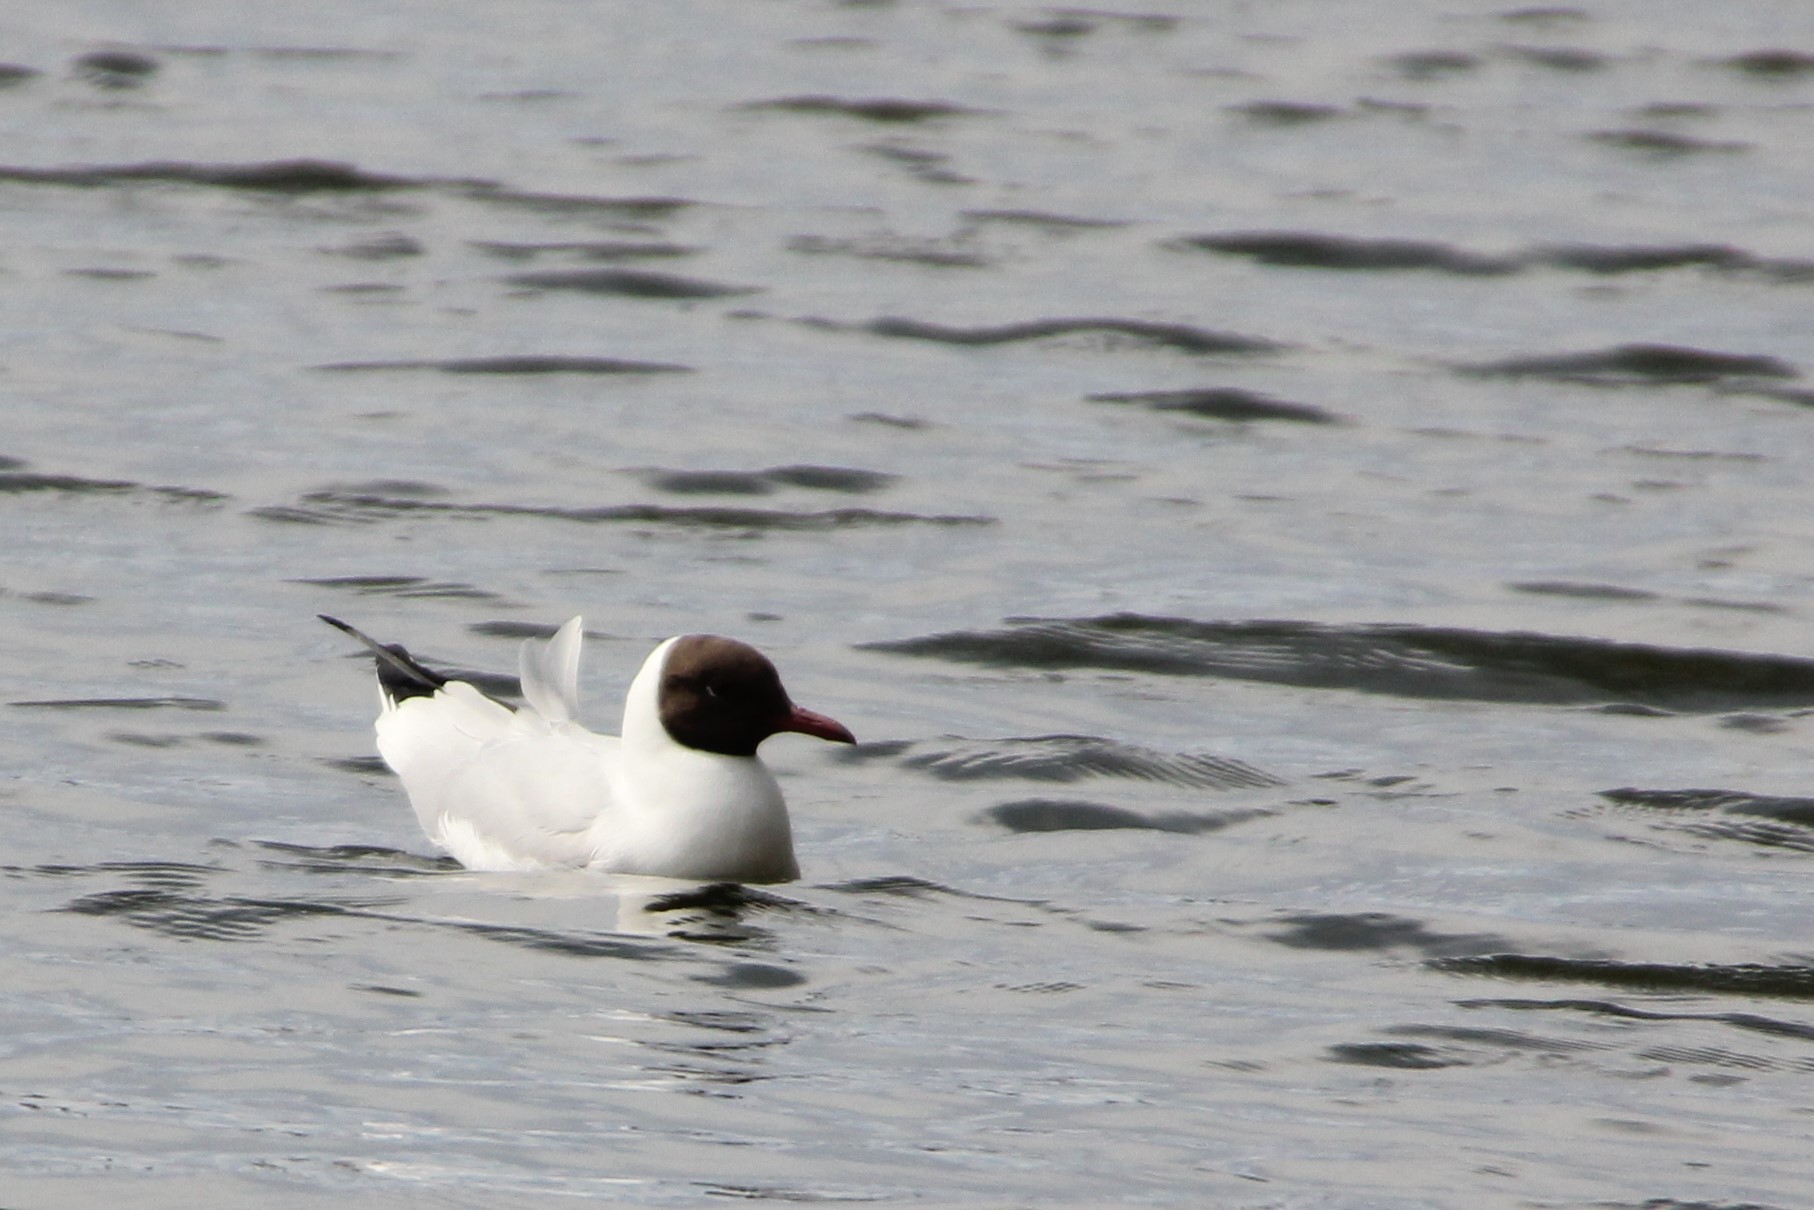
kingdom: Animalia
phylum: Chordata
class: Aves
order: Charadriiformes
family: Laridae
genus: Chroicocephalus
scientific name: Chroicocephalus ridibundus
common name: Black-headed gull
